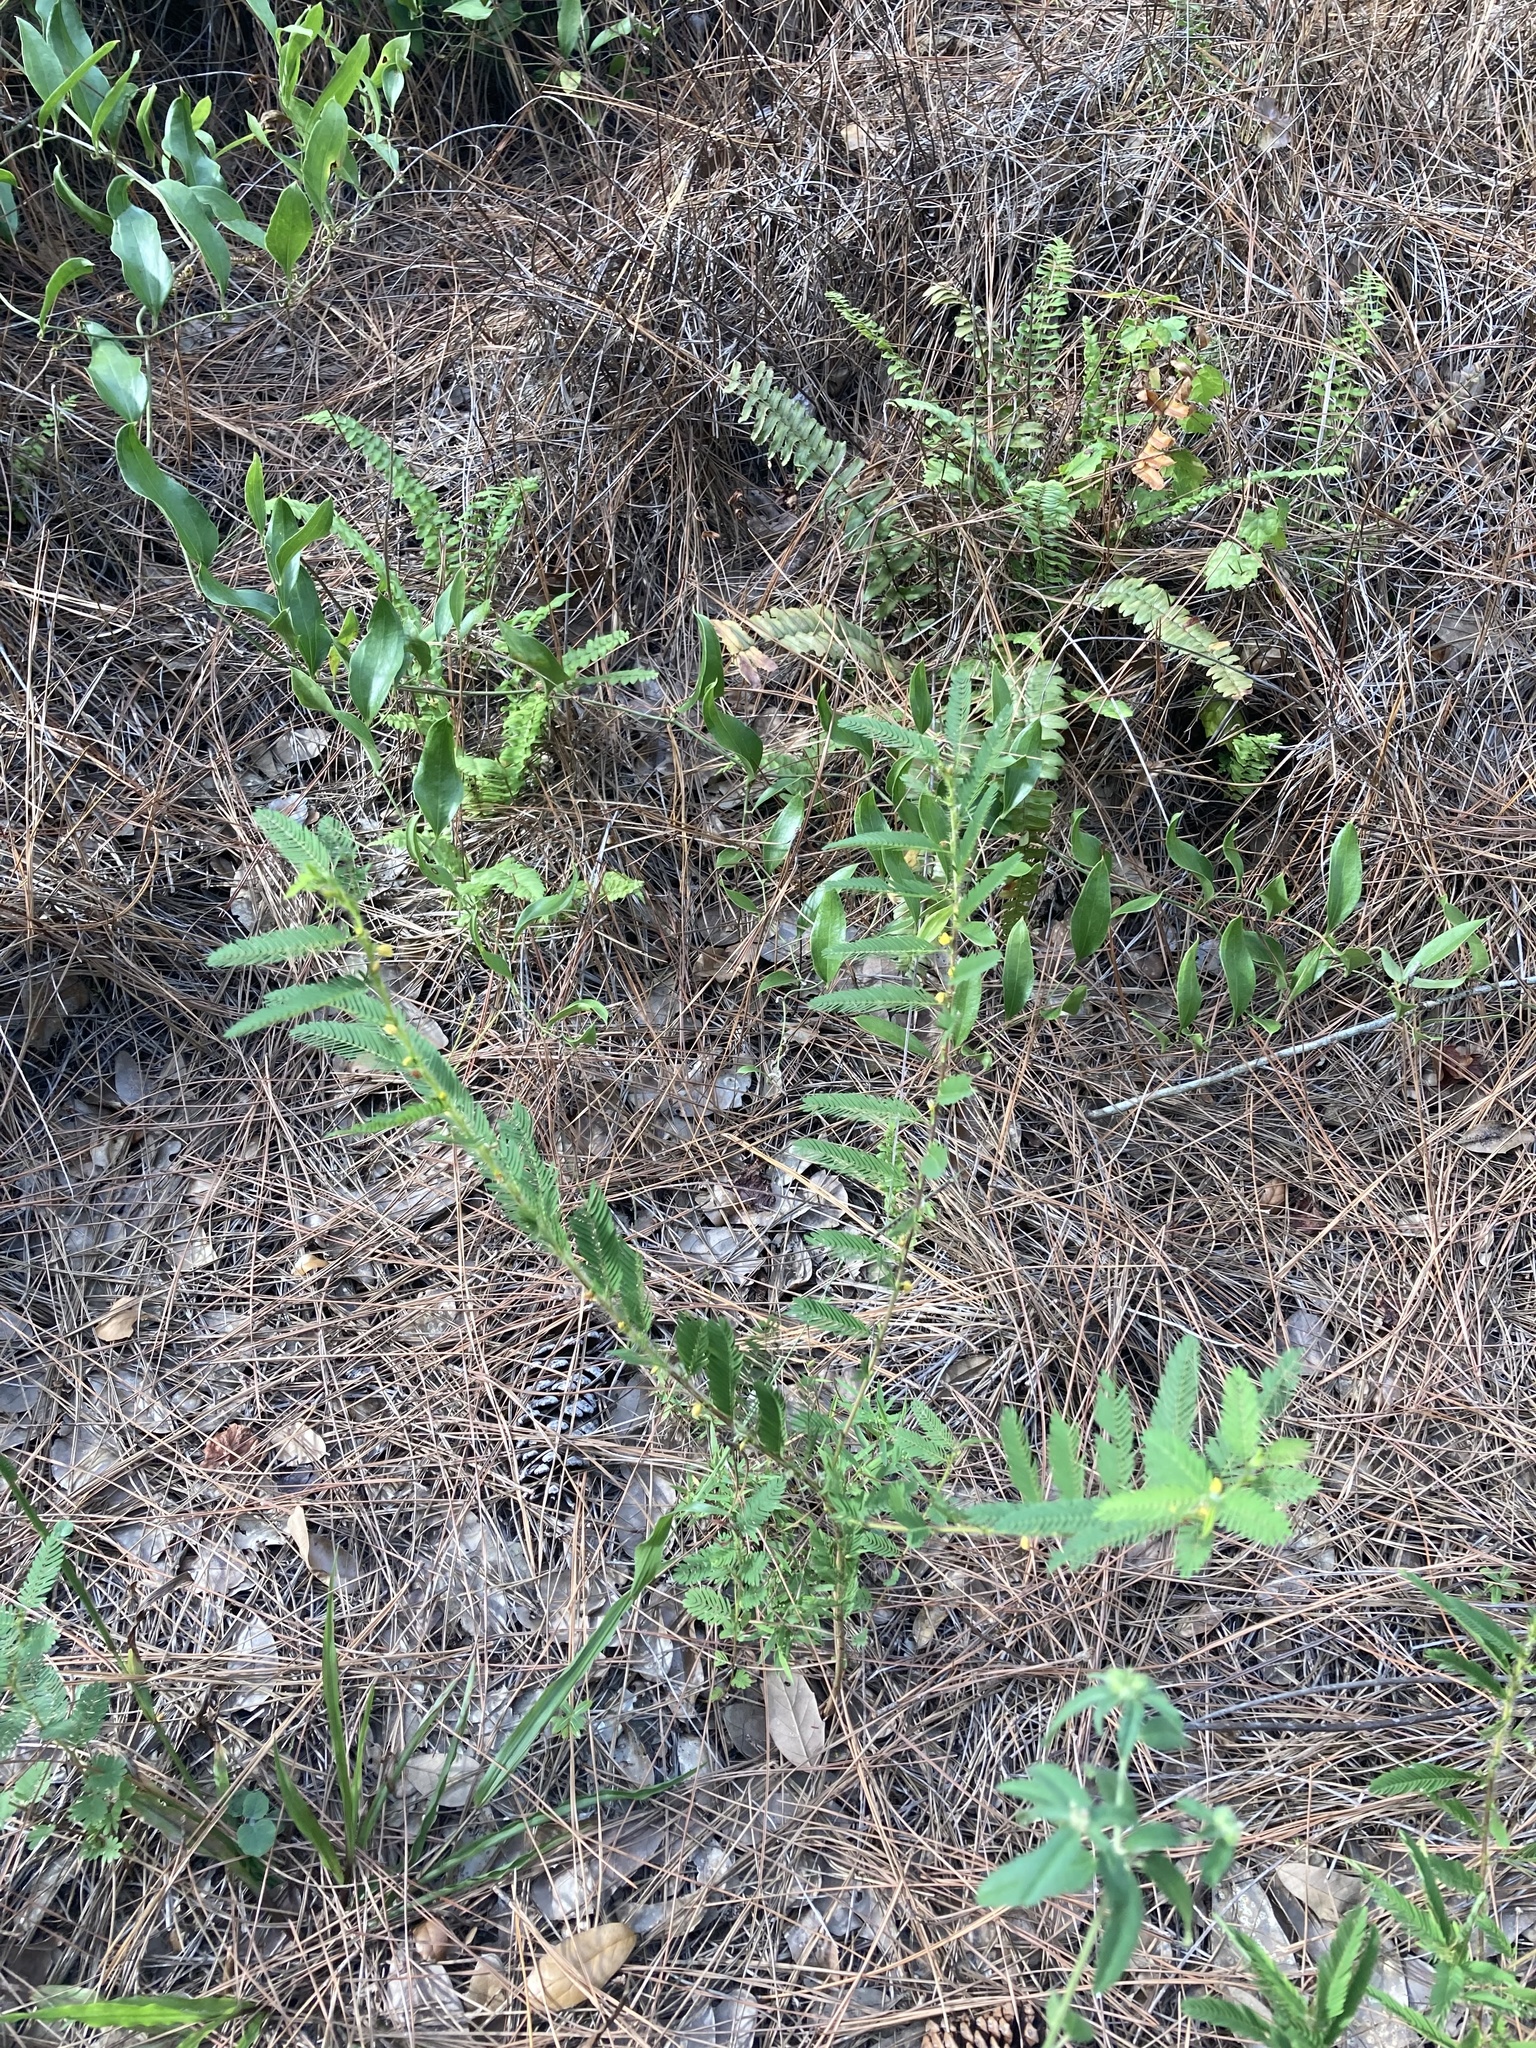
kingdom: Plantae
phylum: Tracheophyta
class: Magnoliopsida
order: Fabales
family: Fabaceae
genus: Chamaecrista
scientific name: Chamaecrista nictitans
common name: Sensitive cassia
